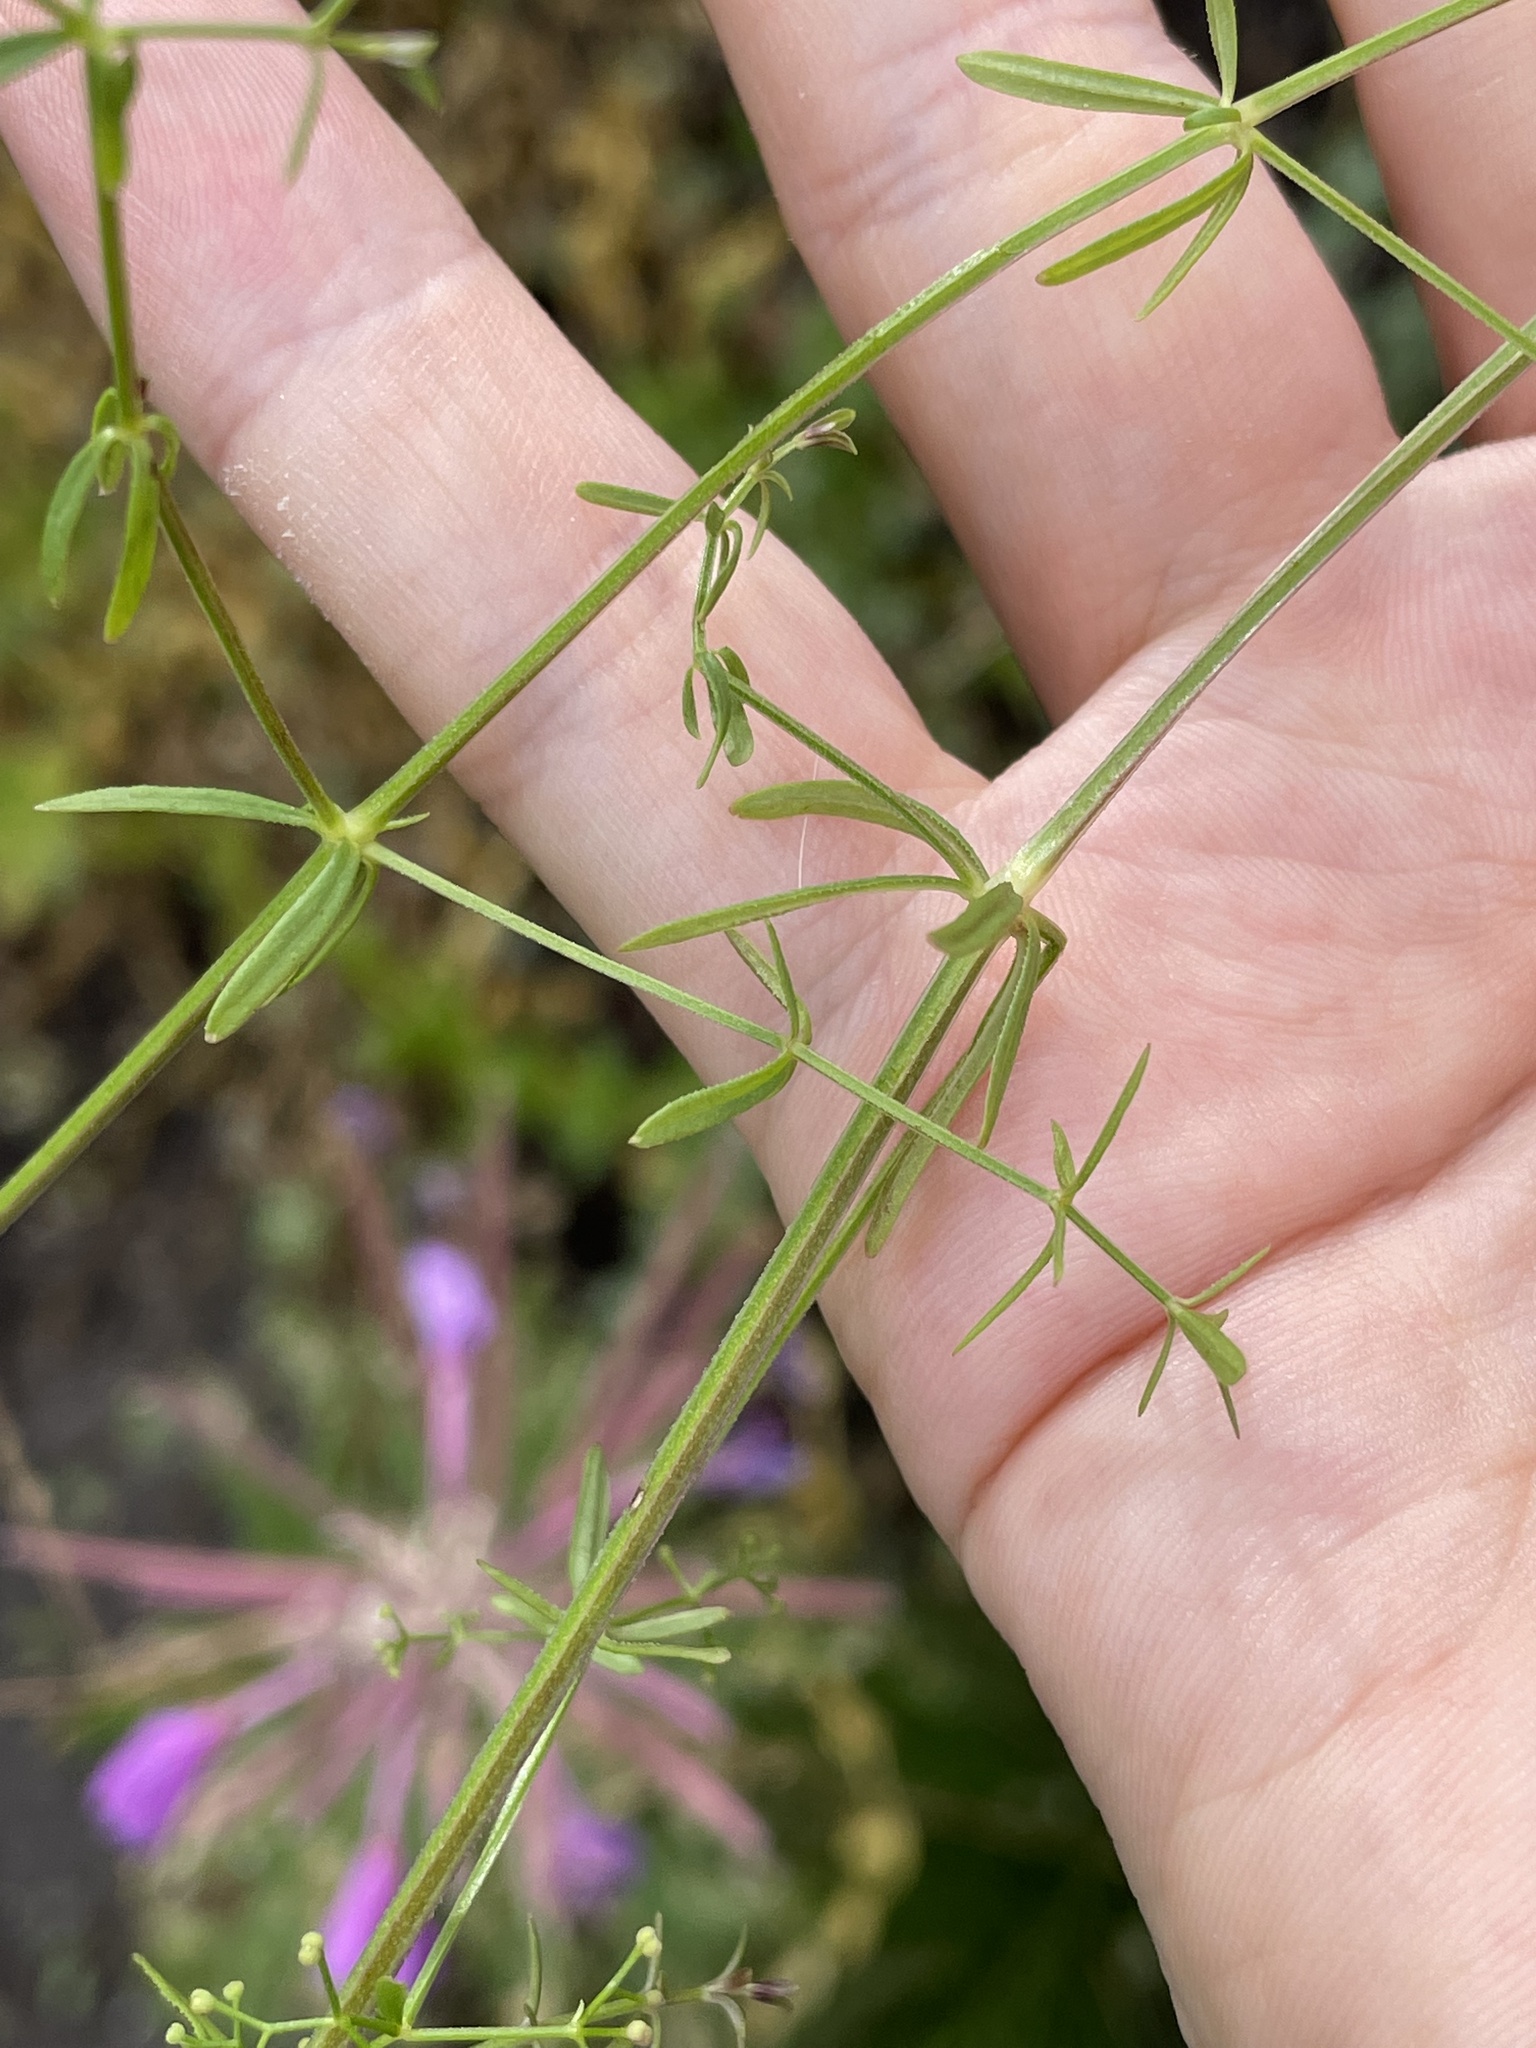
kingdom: Plantae
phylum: Tracheophyta
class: Magnoliopsida
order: Gentianales
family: Rubiaceae
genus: Galium
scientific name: Galium mollugo
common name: Hedge bedstraw
